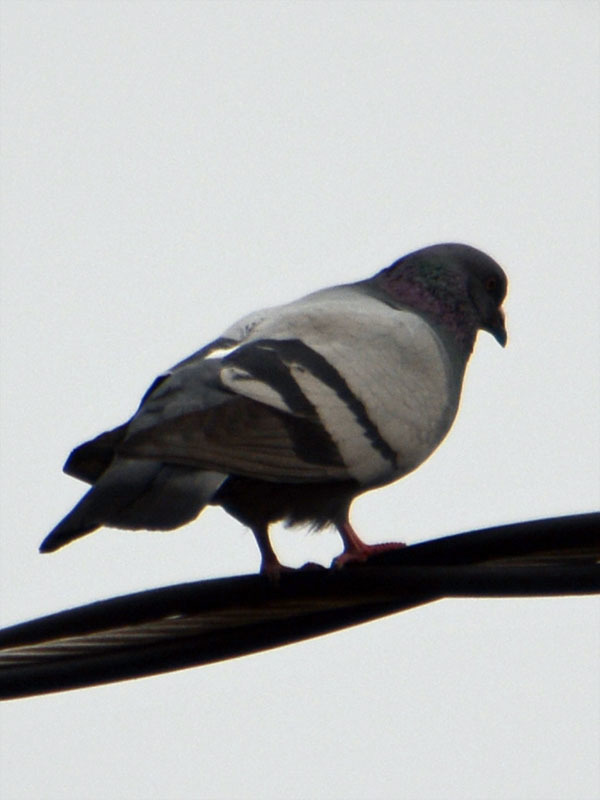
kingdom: Animalia
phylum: Chordata
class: Aves
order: Columbiformes
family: Columbidae
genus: Columba
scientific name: Columba livia
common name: Rock pigeon
